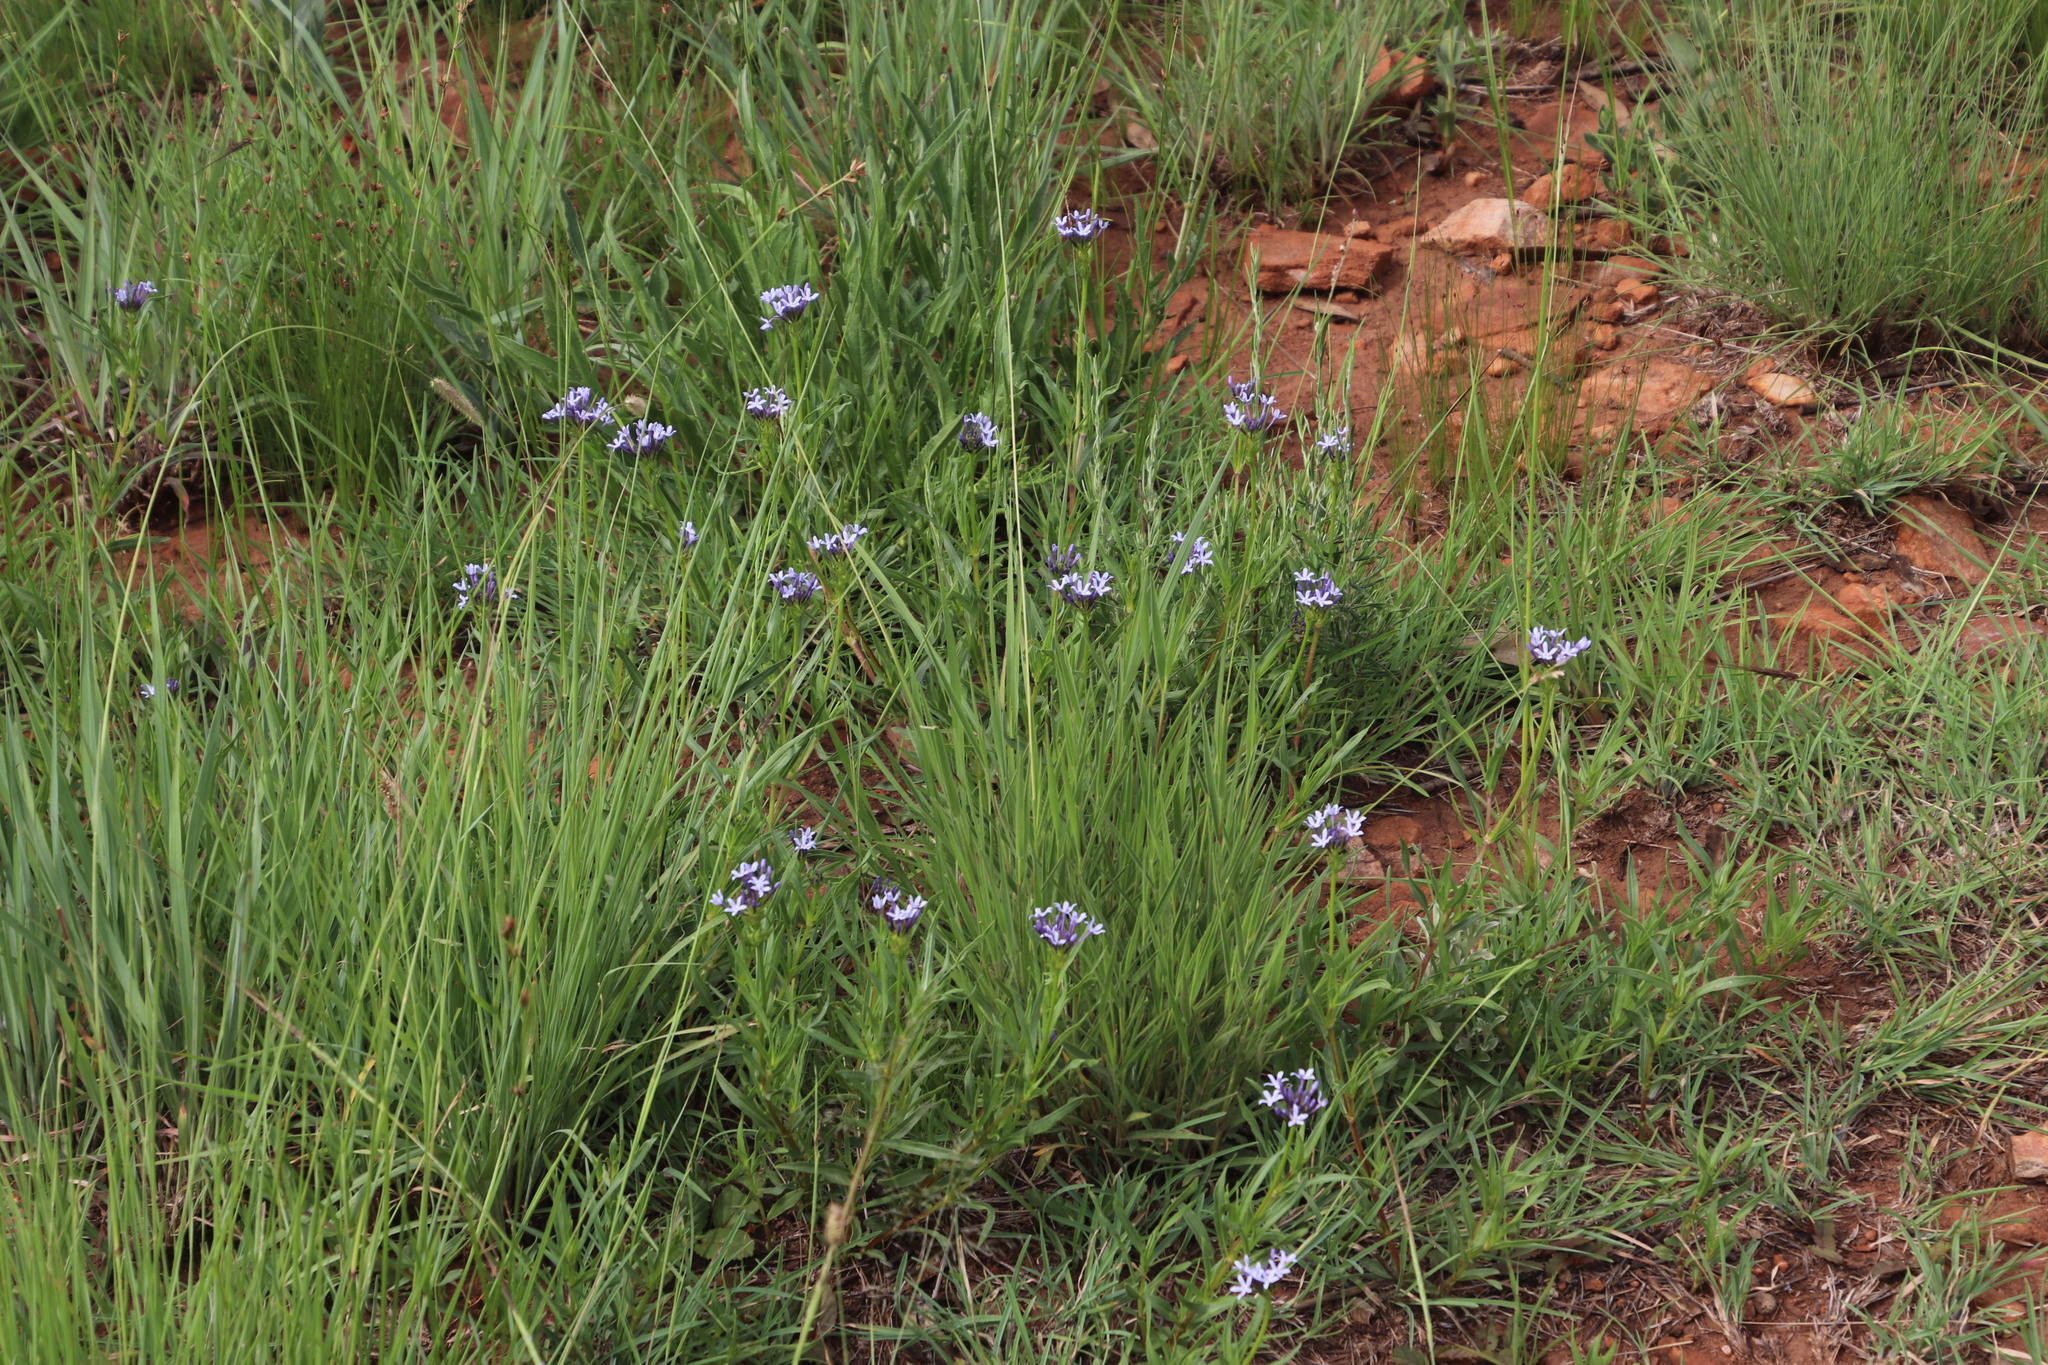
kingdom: Plantae
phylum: Tracheophyta
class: Magnoliopsida
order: Gentianales
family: Rubiaceae
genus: Pentanisia
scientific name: Pentanisia angustifolia
